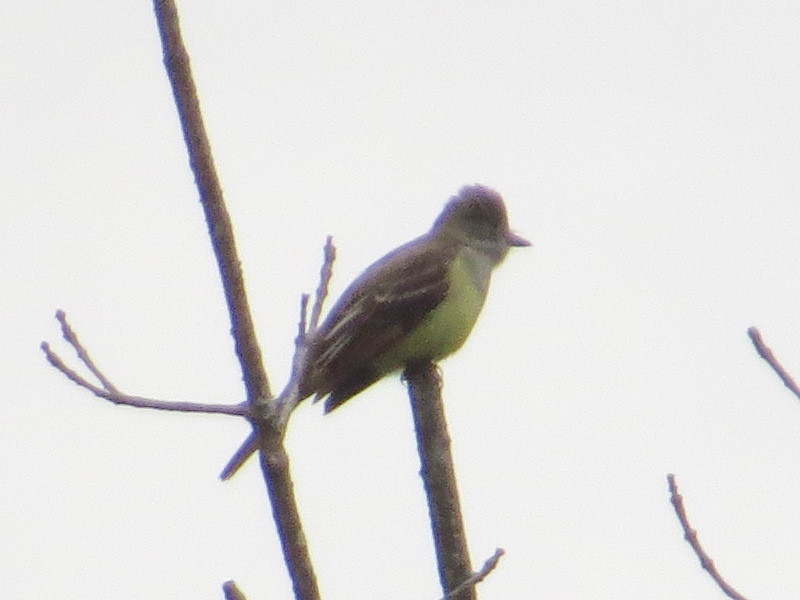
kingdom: Animalia
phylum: Chordata
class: Aves
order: Passeriformes
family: Tyrannidae
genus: Myiarchus
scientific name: Myiarchus crinitus
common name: Great crested flycatcher
